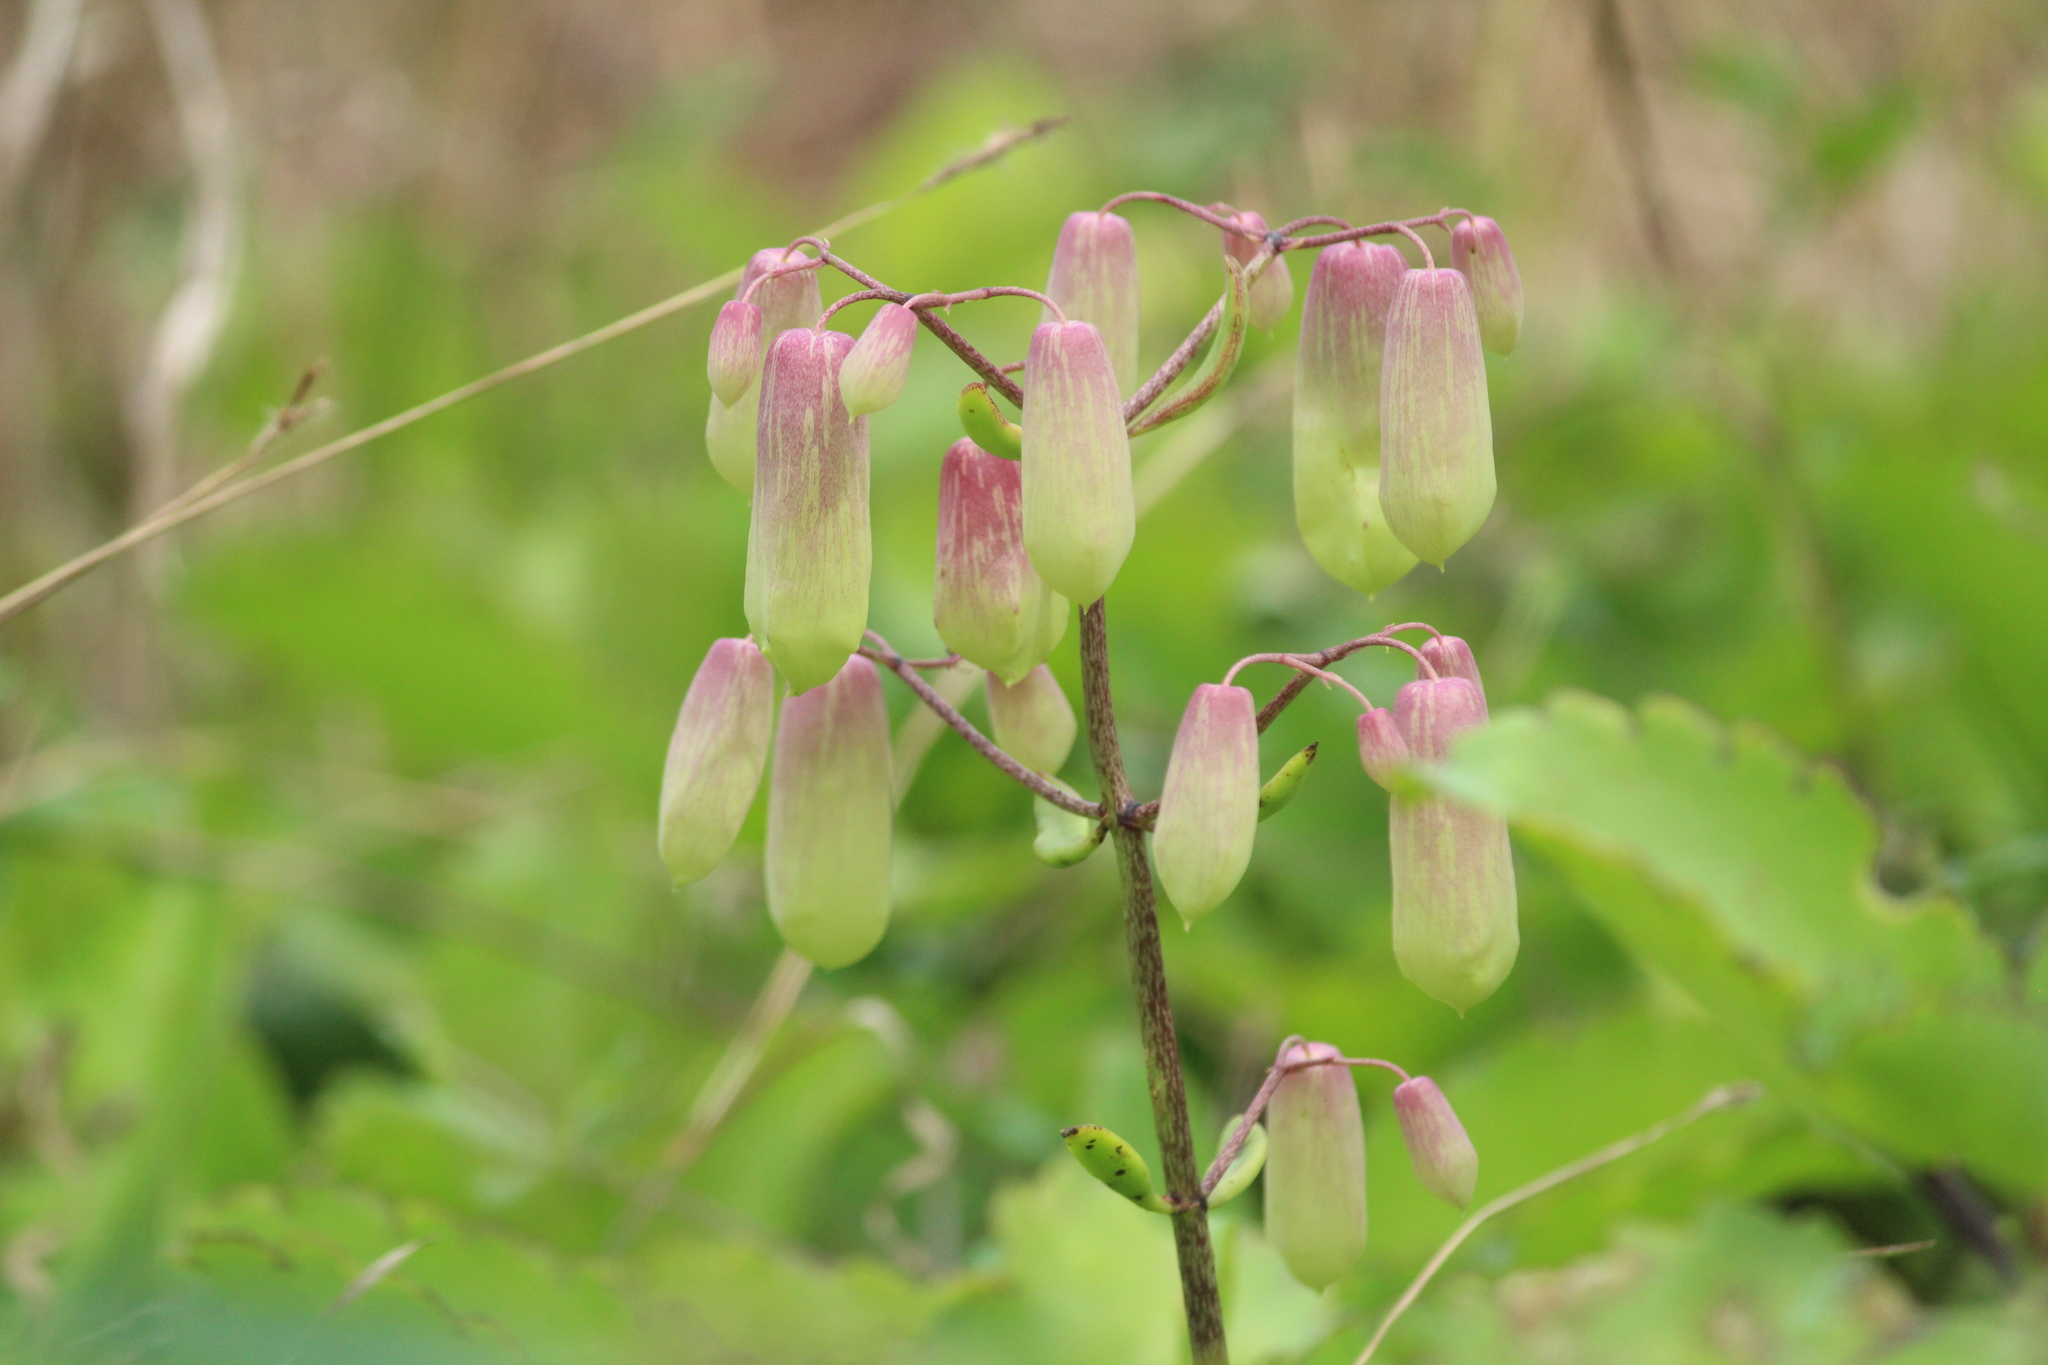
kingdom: Plantae
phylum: Tracheophyta
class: Magnoliopsida
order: Saxifragales
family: Crassulaceae
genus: Kalanchoe
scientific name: Kalanchoe pinnata
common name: Cathedral bells
